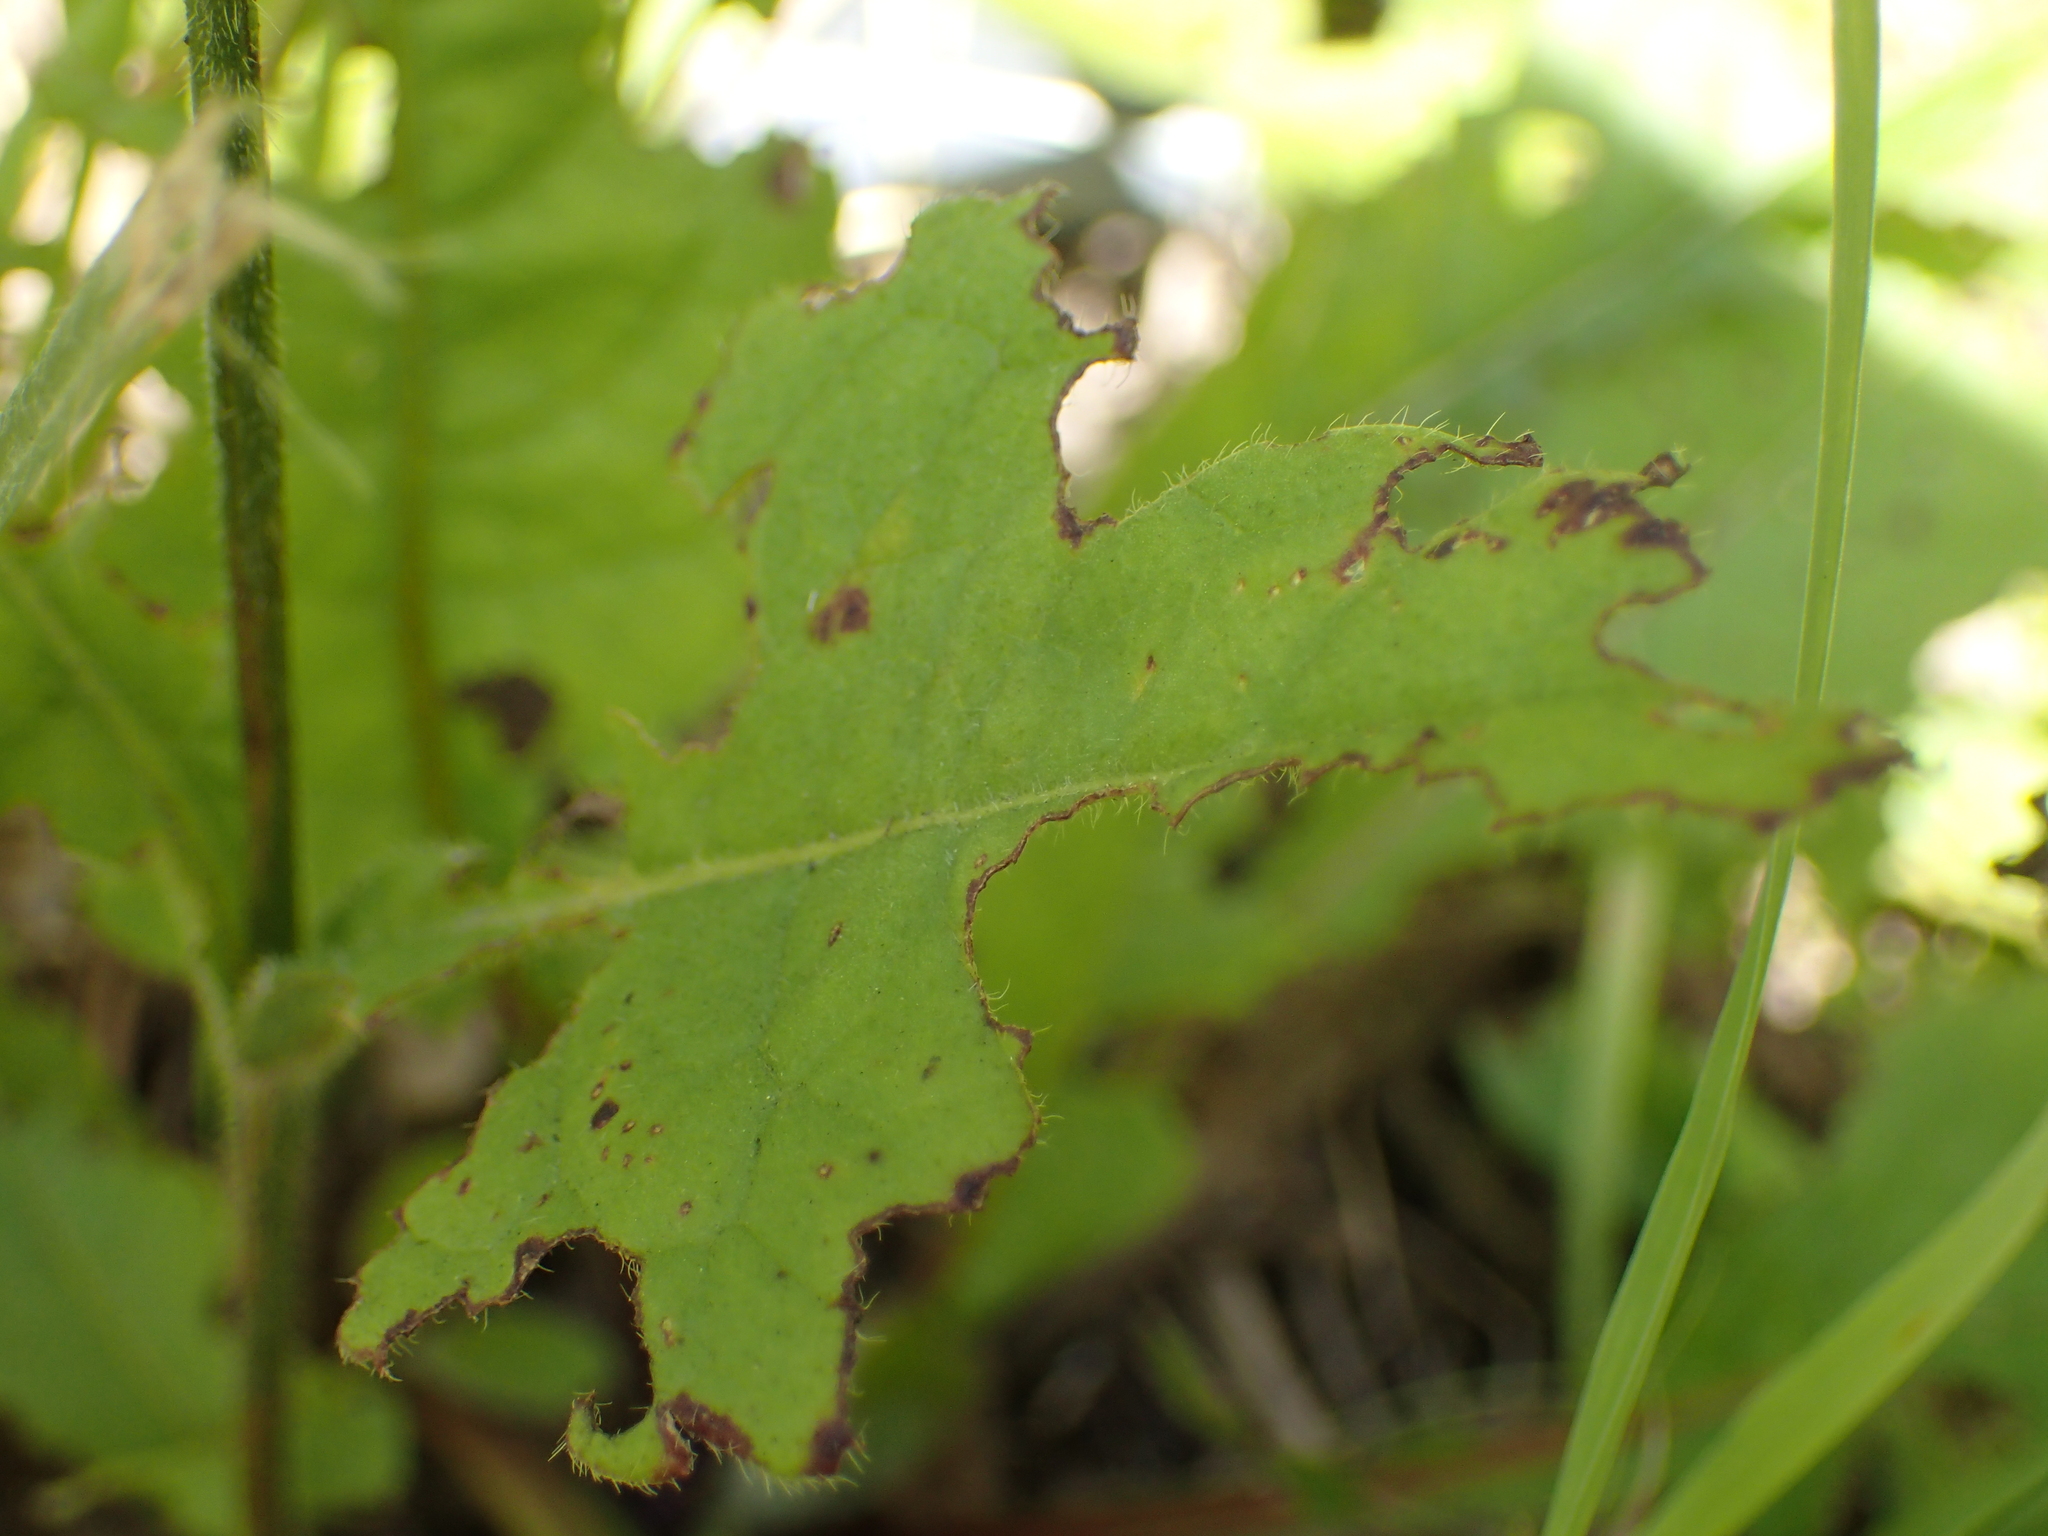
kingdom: Plantae
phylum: Tracheophyta
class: Magnoliopsida
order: Dipsacales
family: Caprifoliaceae
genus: Knautia
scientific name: Knautia drymeia
